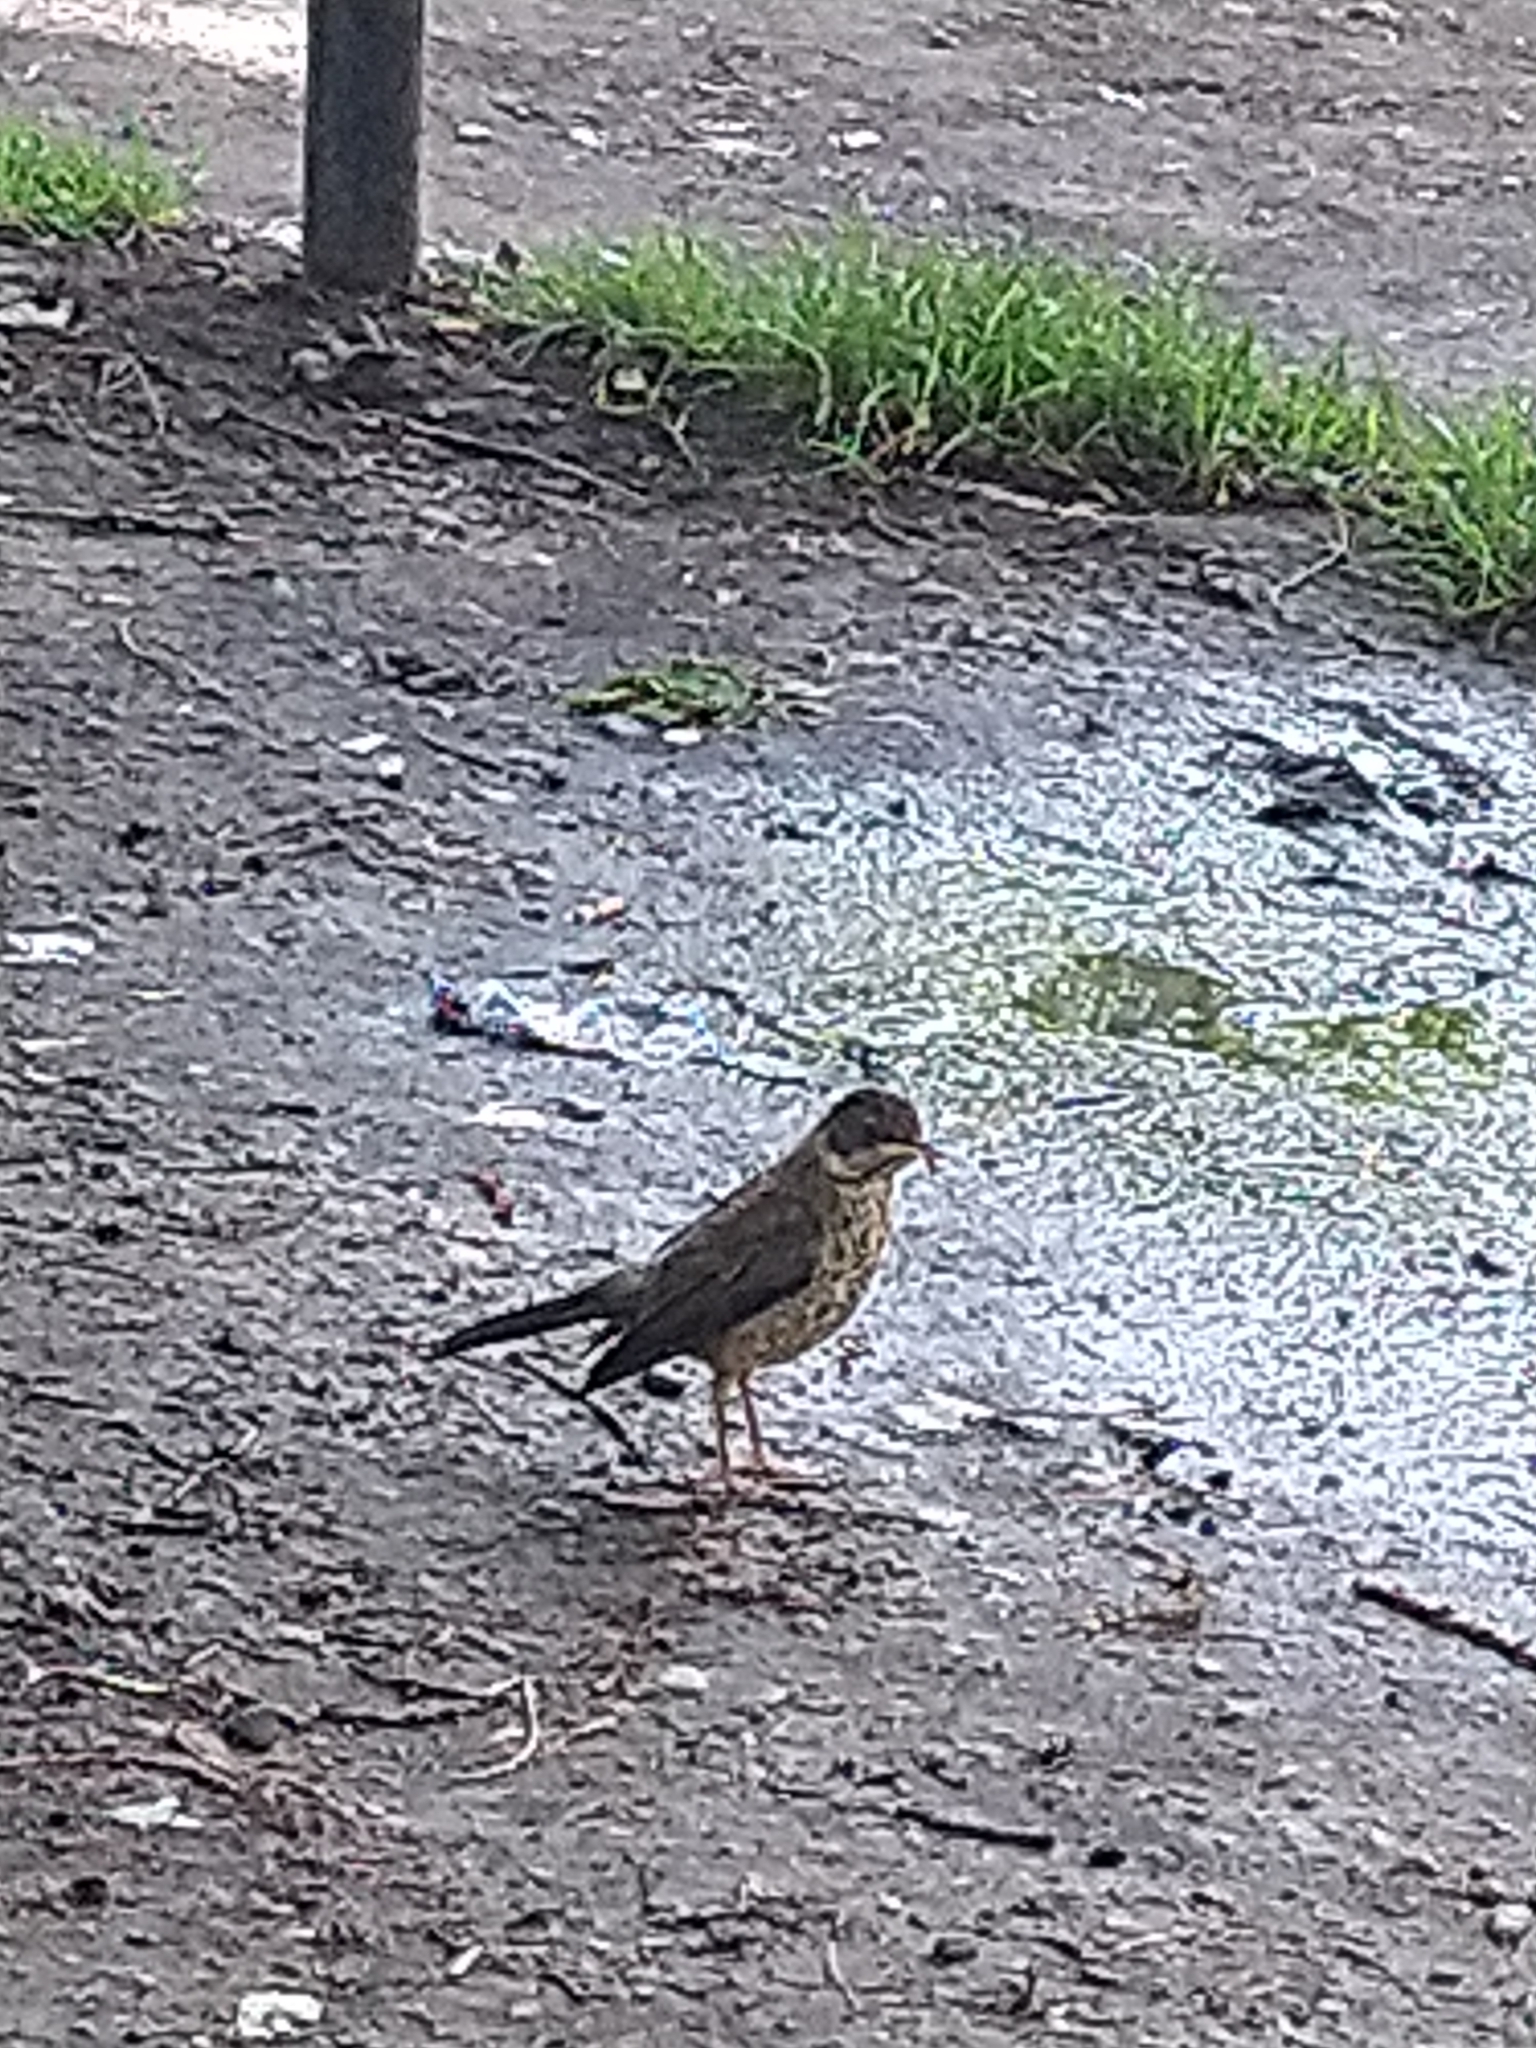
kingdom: Animalia
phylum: Chordata
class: Aves
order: Passeriformes
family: Turdidae
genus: Turdus
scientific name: Turdus falcklandii
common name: Austral thrush
